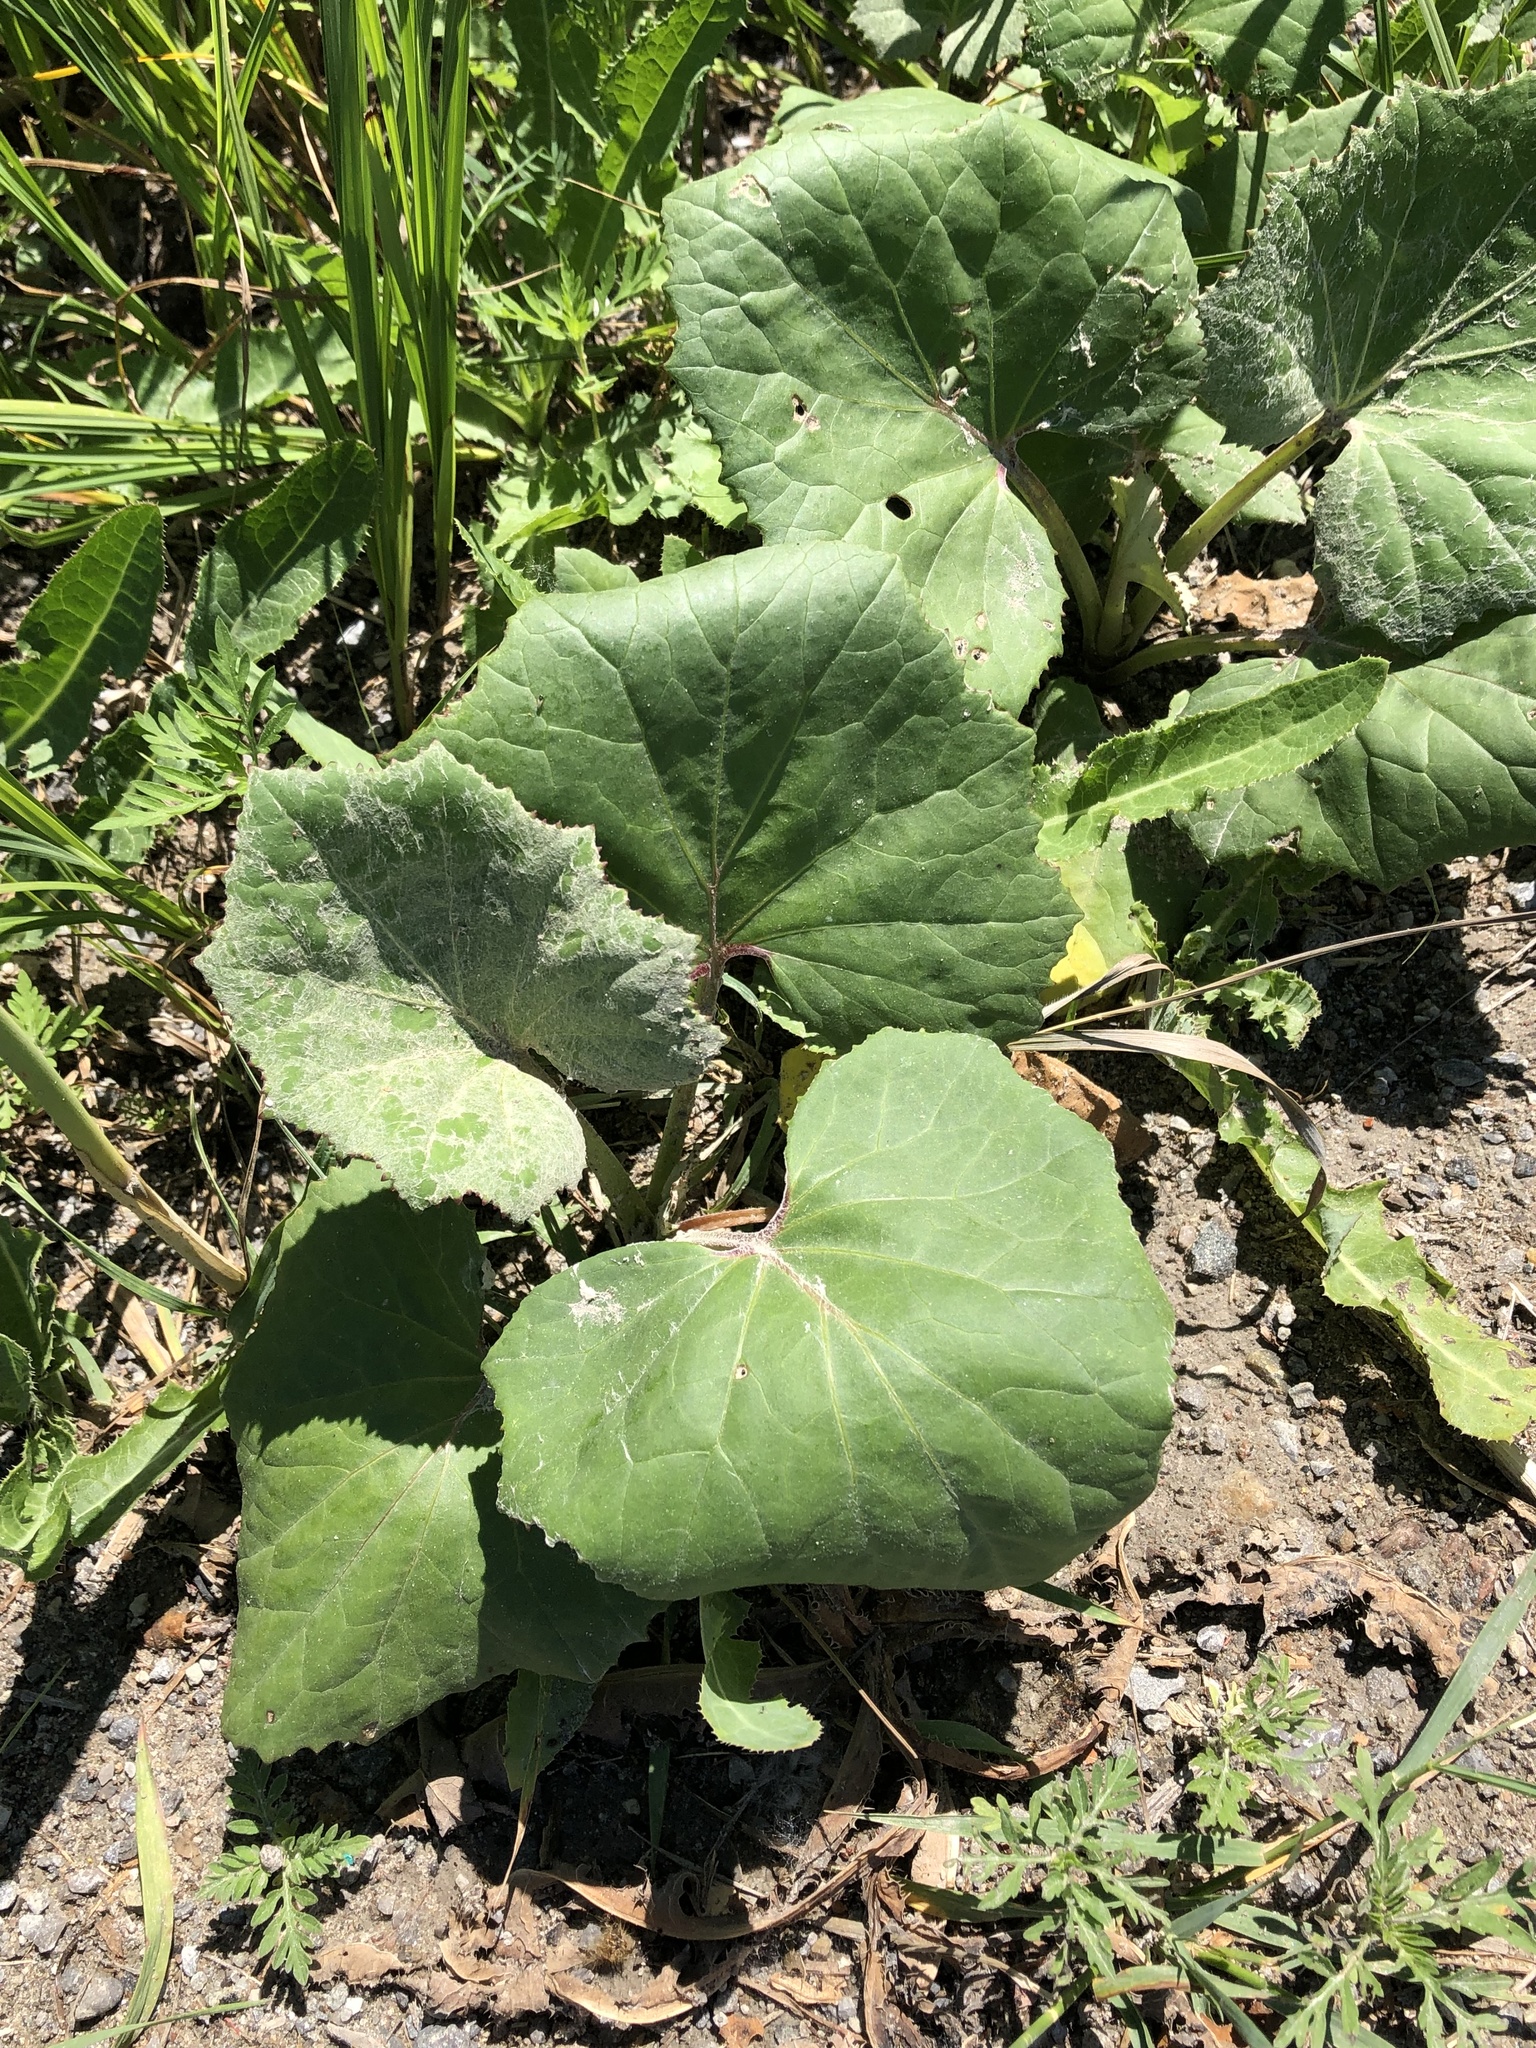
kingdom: Plantae
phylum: Tracheophyta
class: Magnoliopsida
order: Asterales
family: Asteraceae
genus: Tussilago
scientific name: Tussilago farfara
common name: Coltsfoot
